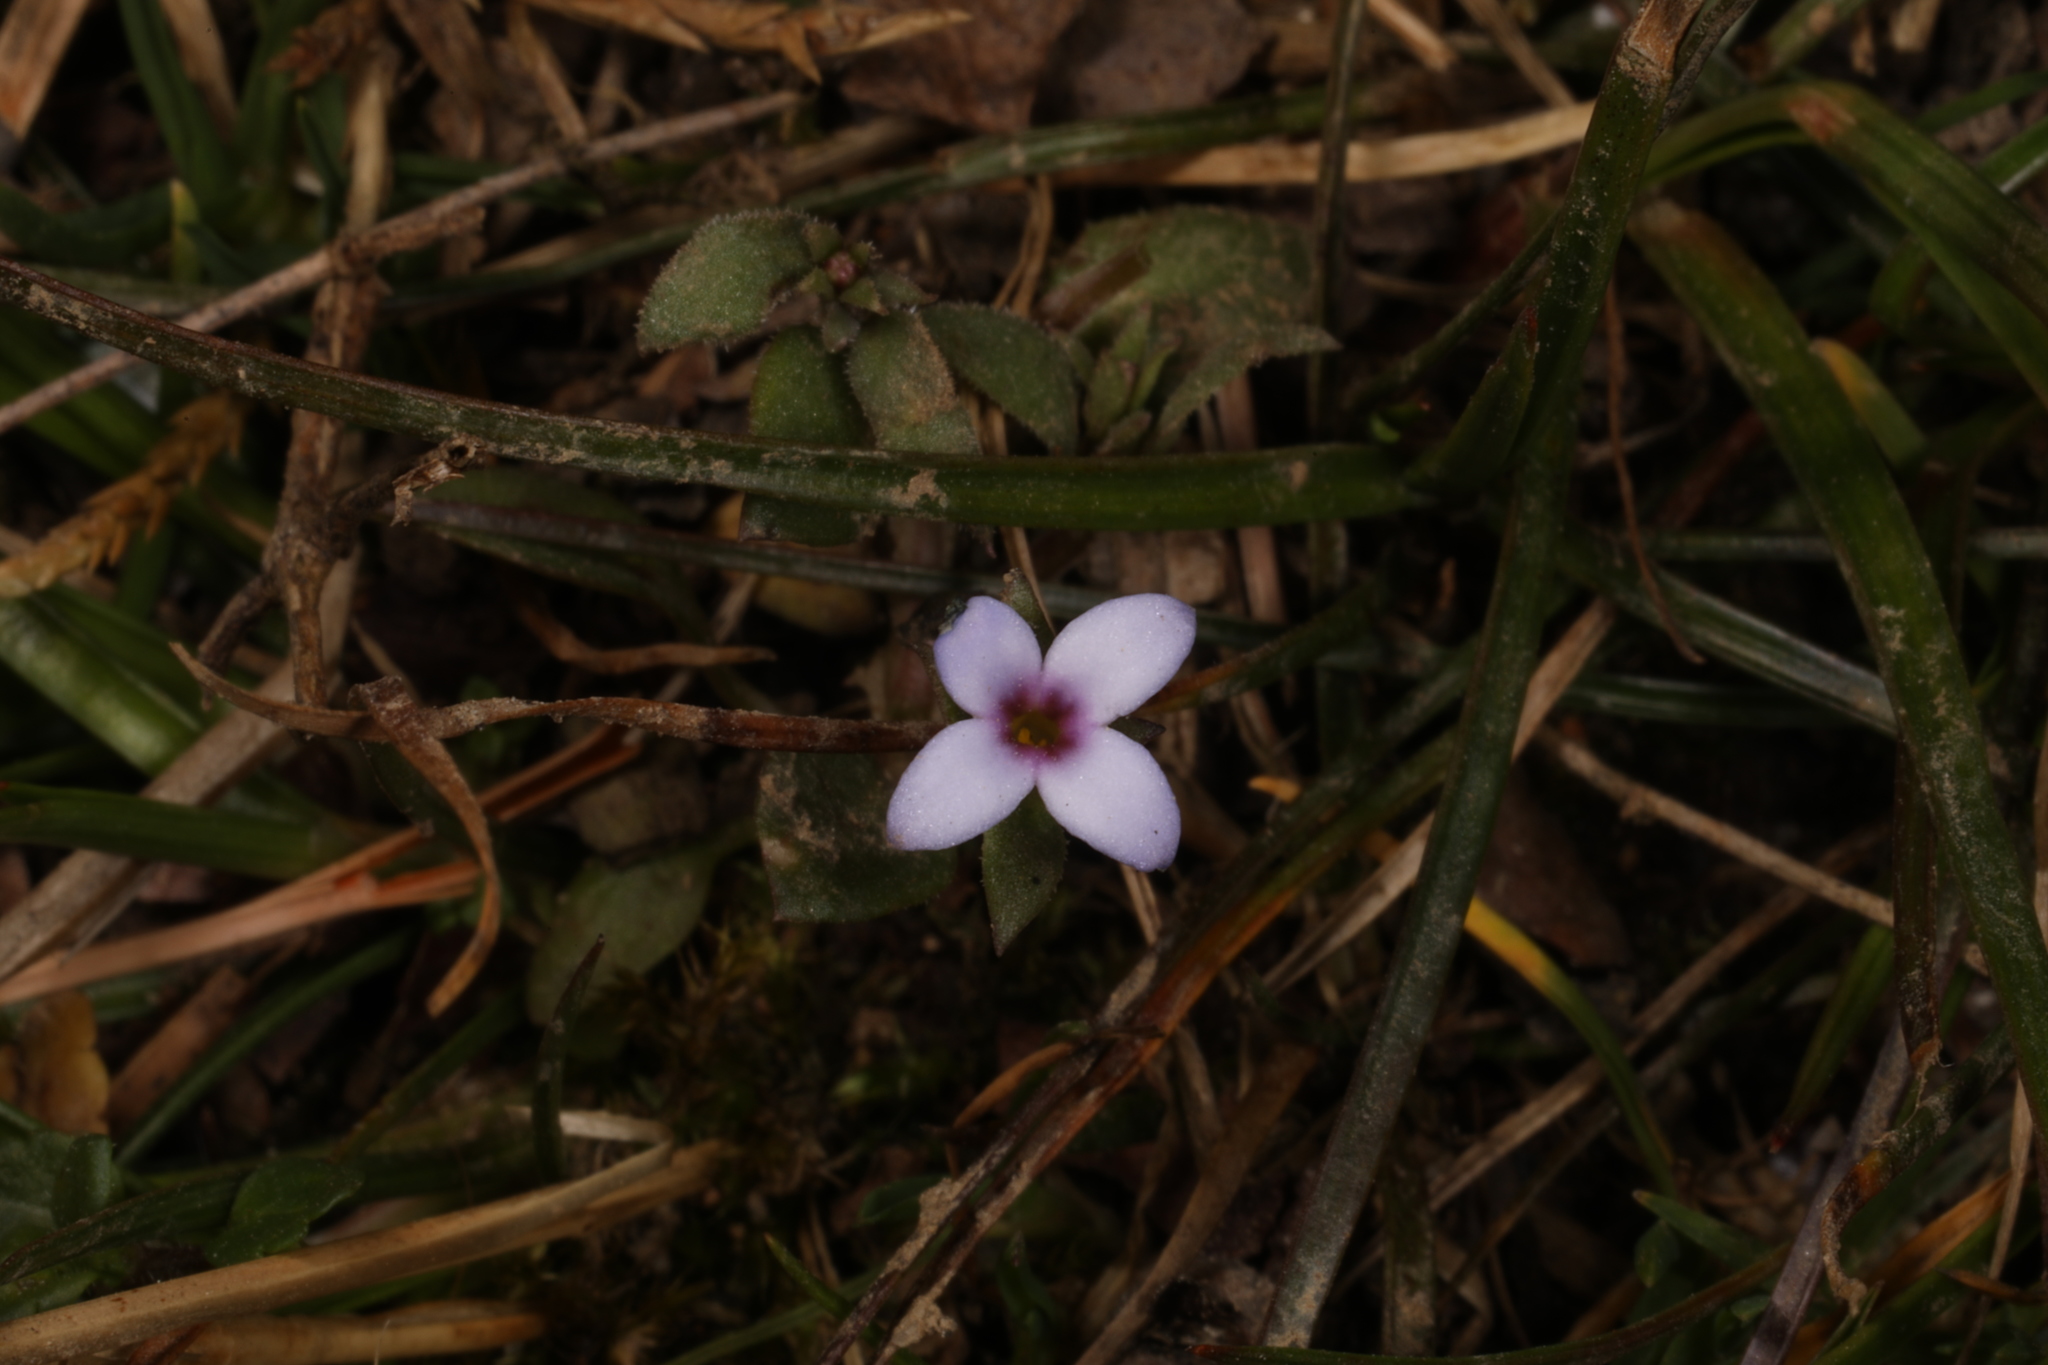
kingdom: Plantae
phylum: Tracheophyta
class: Magnoliopsida
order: Gentianales
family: Rubiaceae
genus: Houstonia
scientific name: Houstonia pusilla
